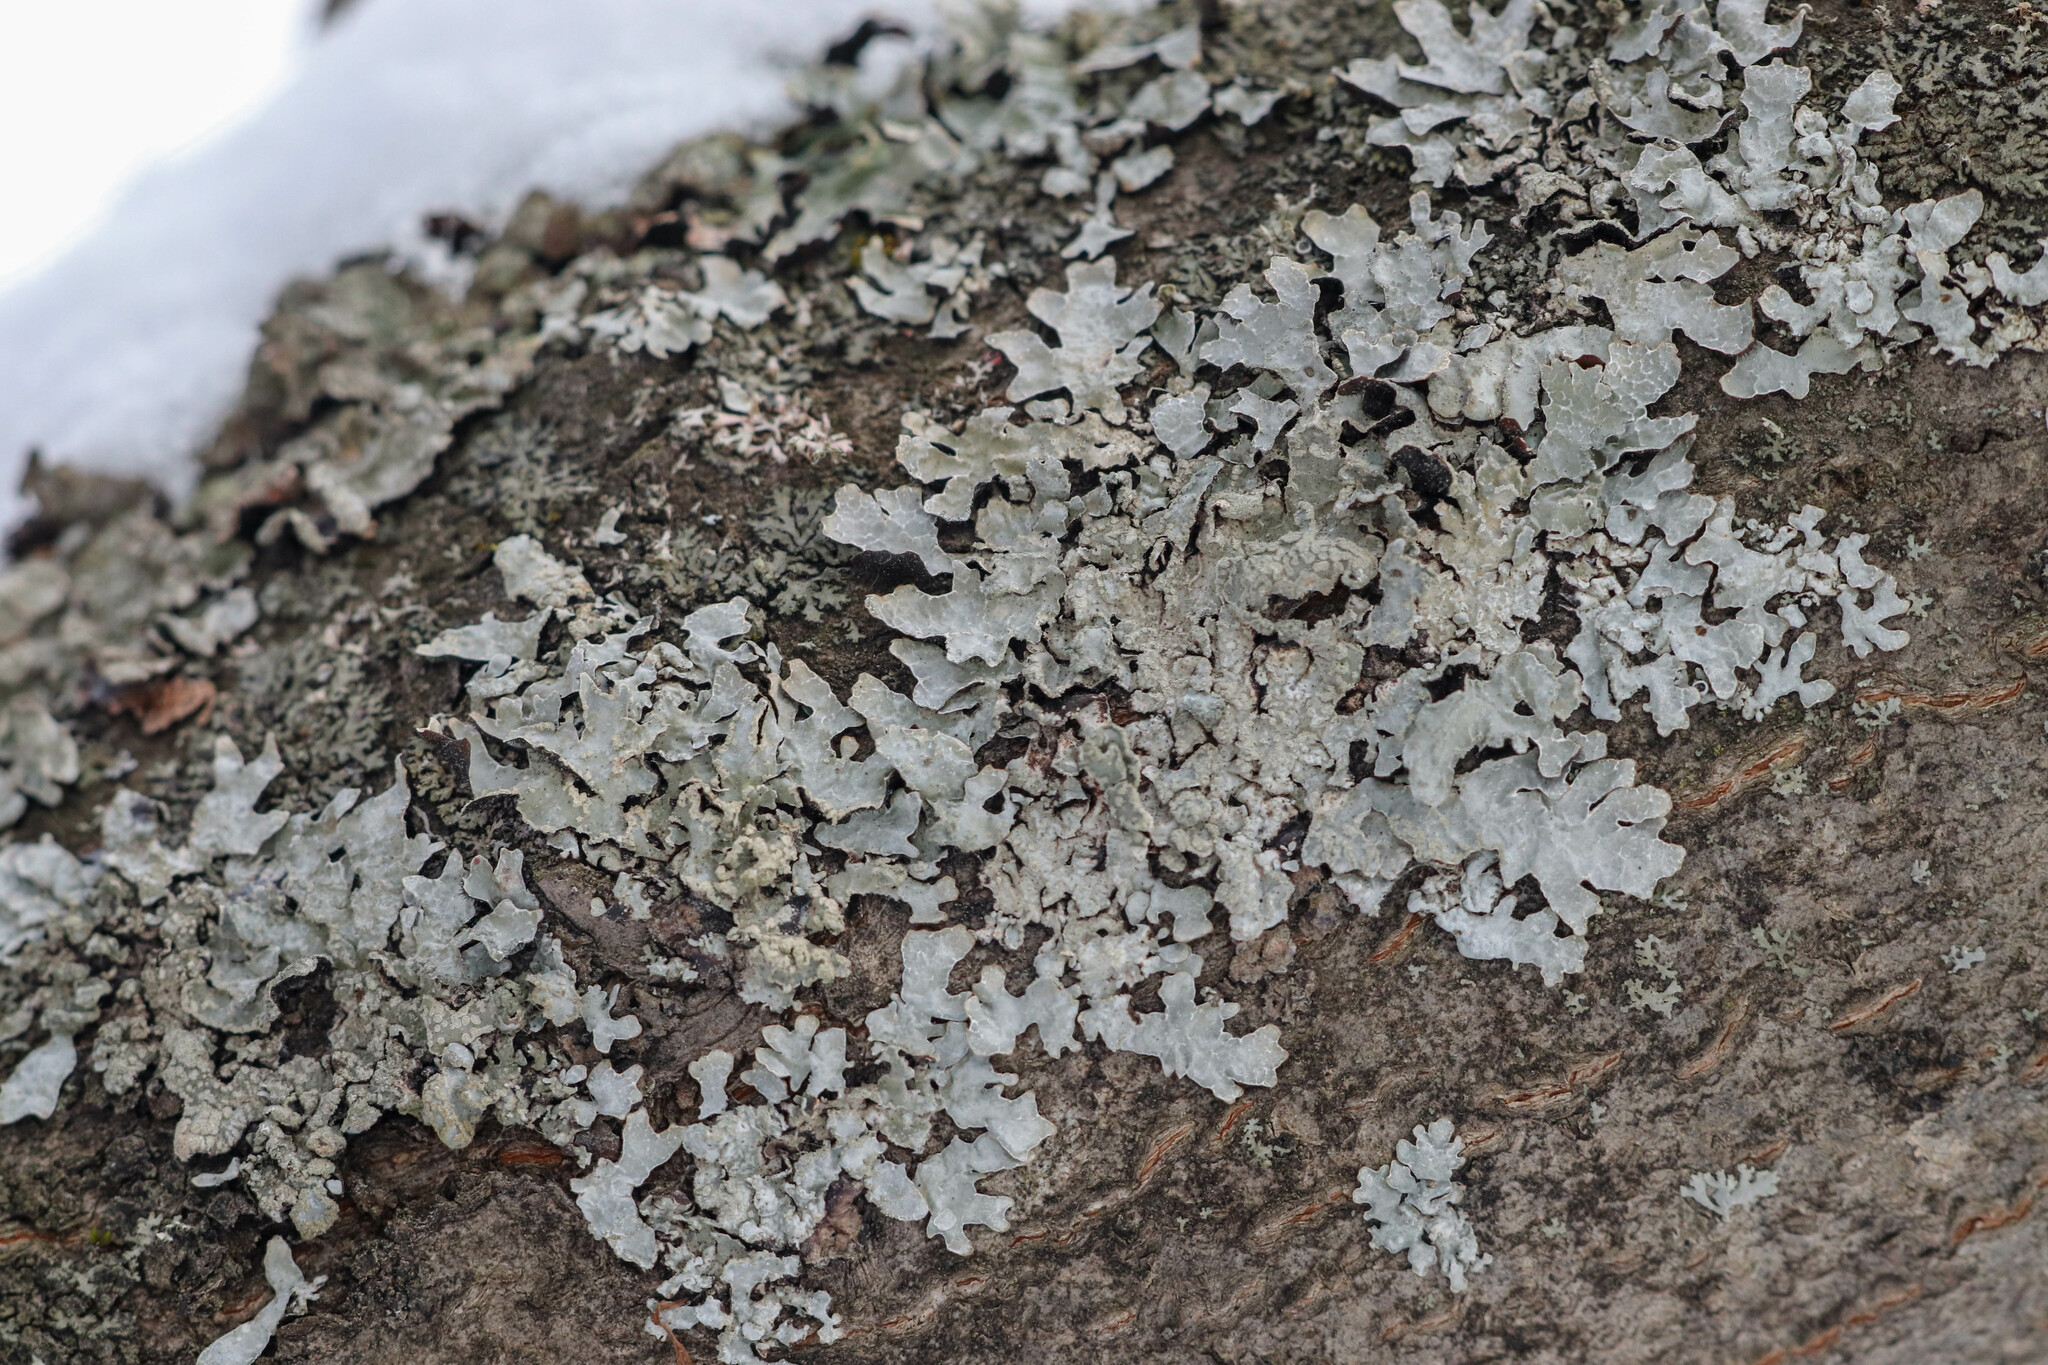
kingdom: Fungi
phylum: Ascomycota
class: Lecanoromycetes
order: Lecanorales
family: Parmeliaceae
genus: Parmelia
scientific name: Parmelia sulcata
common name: Netted shield lichen
